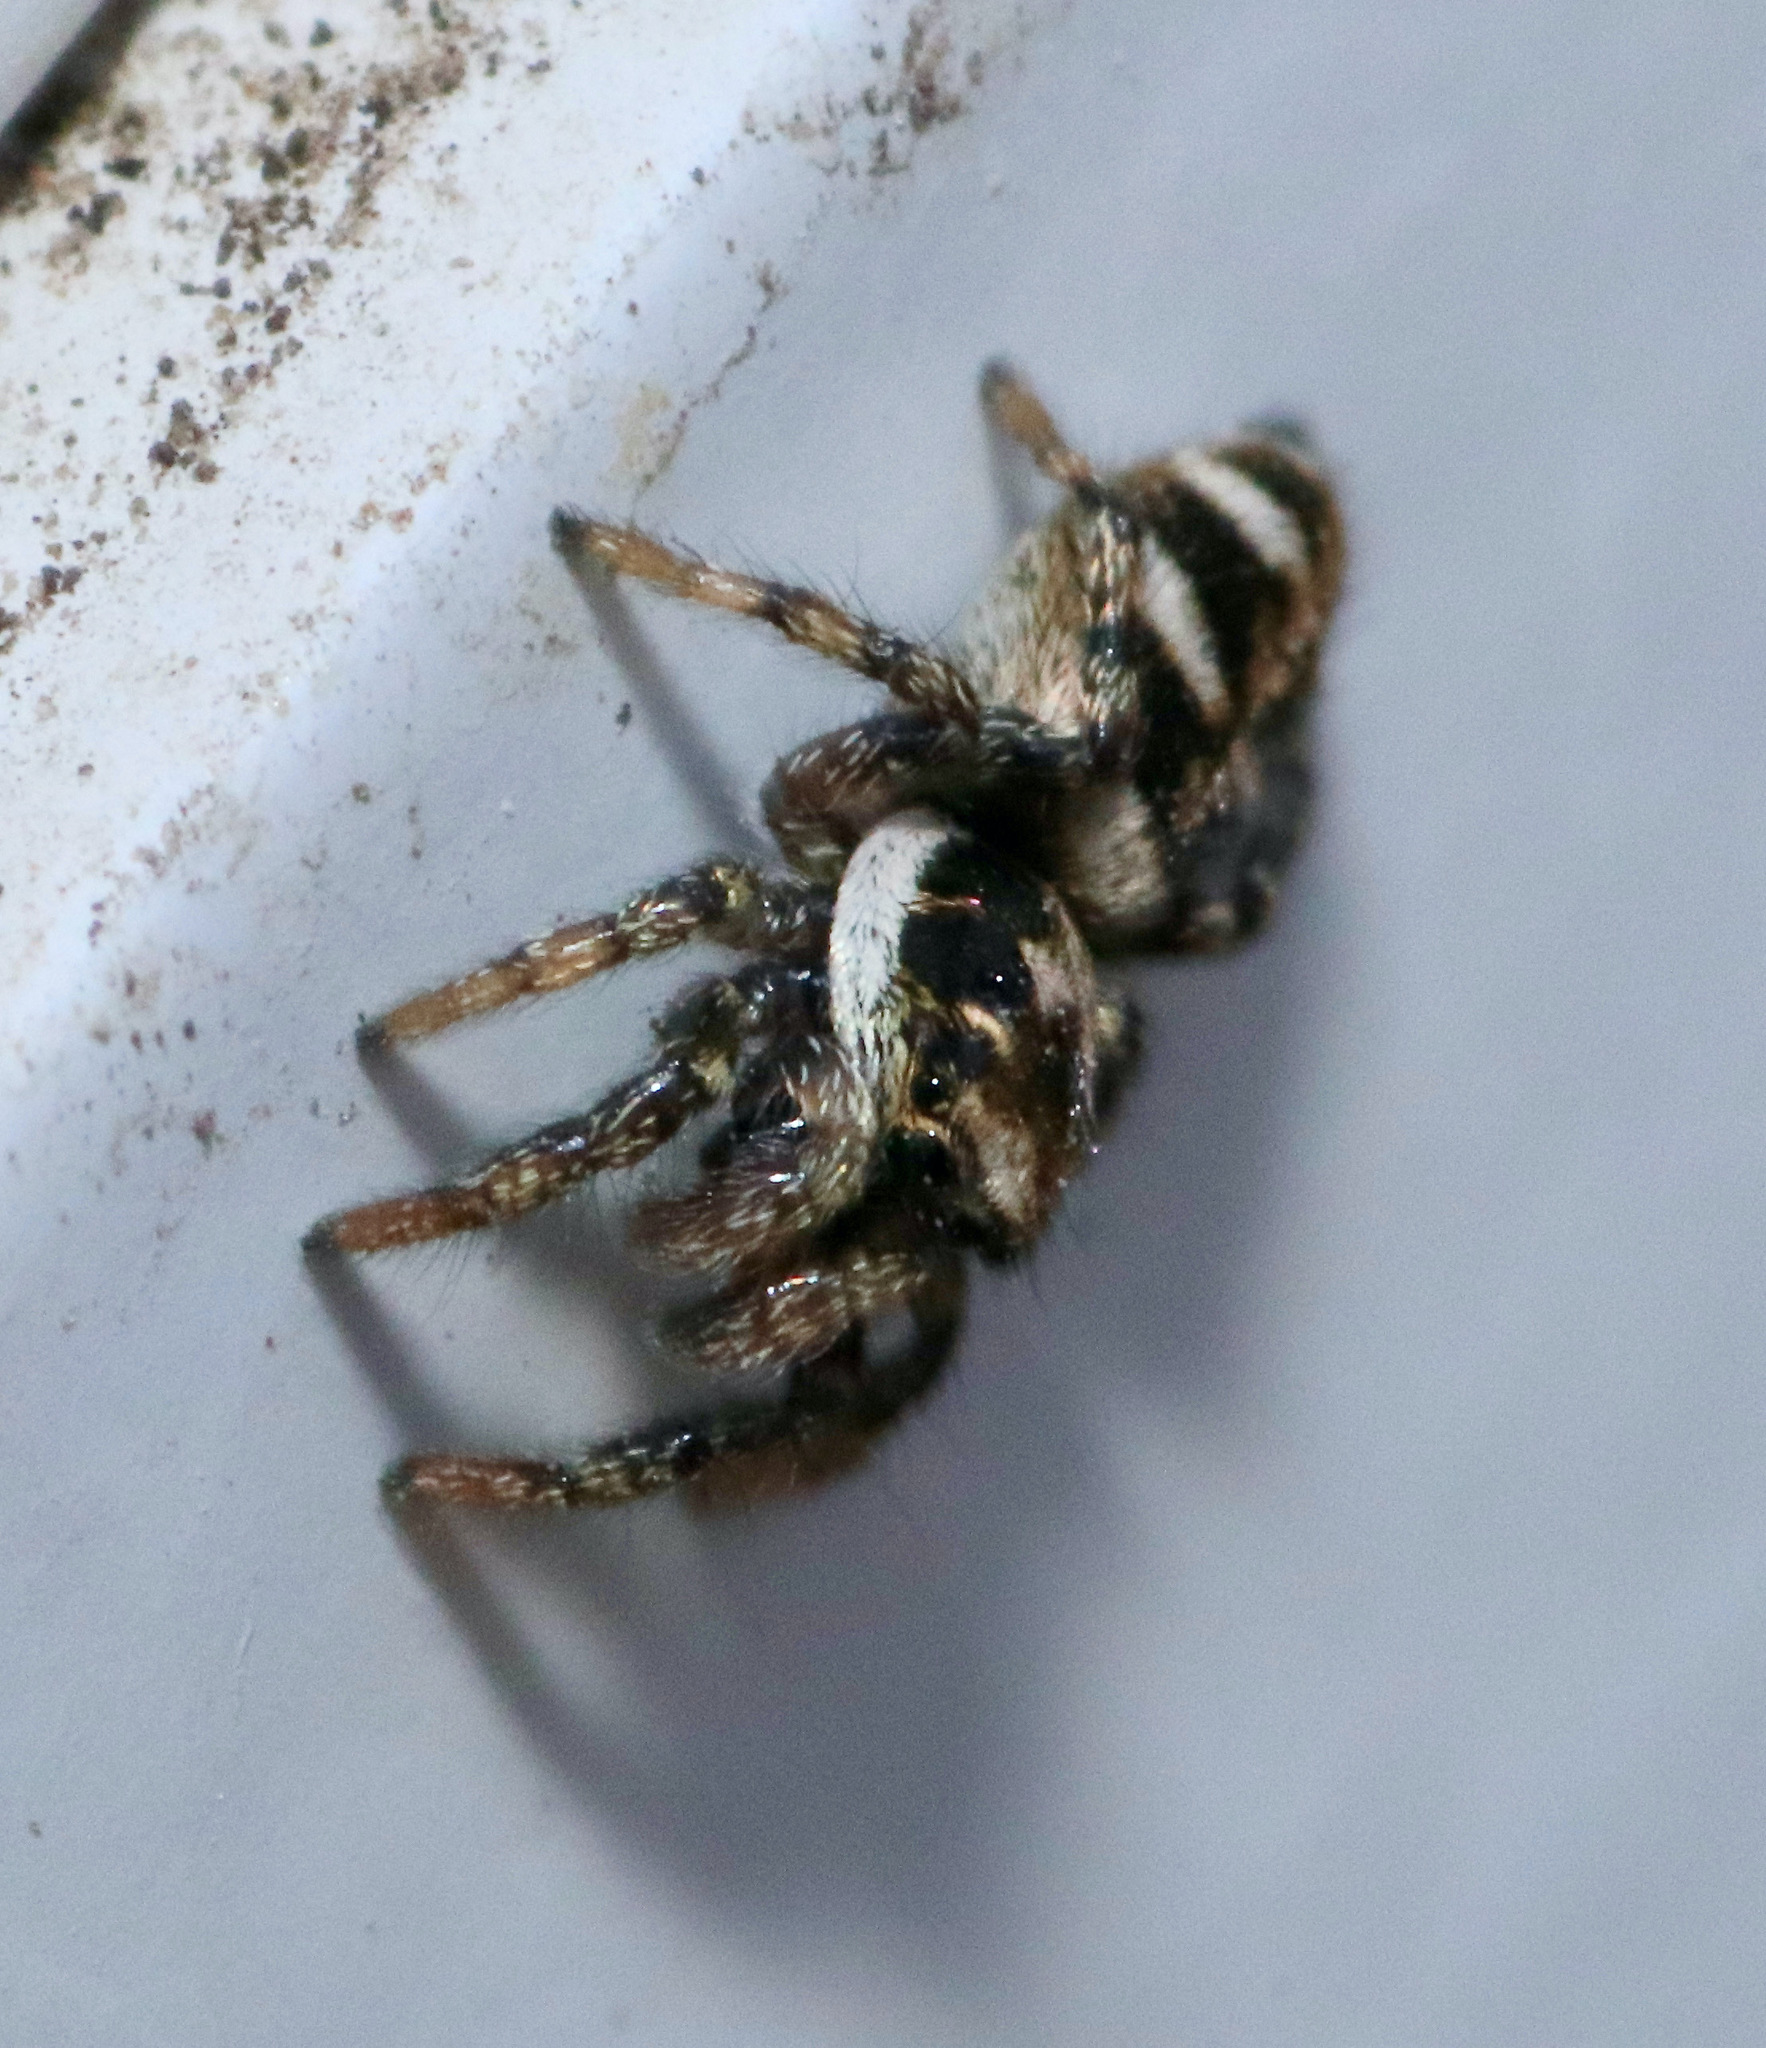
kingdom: Animalia
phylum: Arthropoda
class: Arachnida
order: Araneae
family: Salticidae
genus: Salticus
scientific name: Salticus scenicus
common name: Zebra jumper
